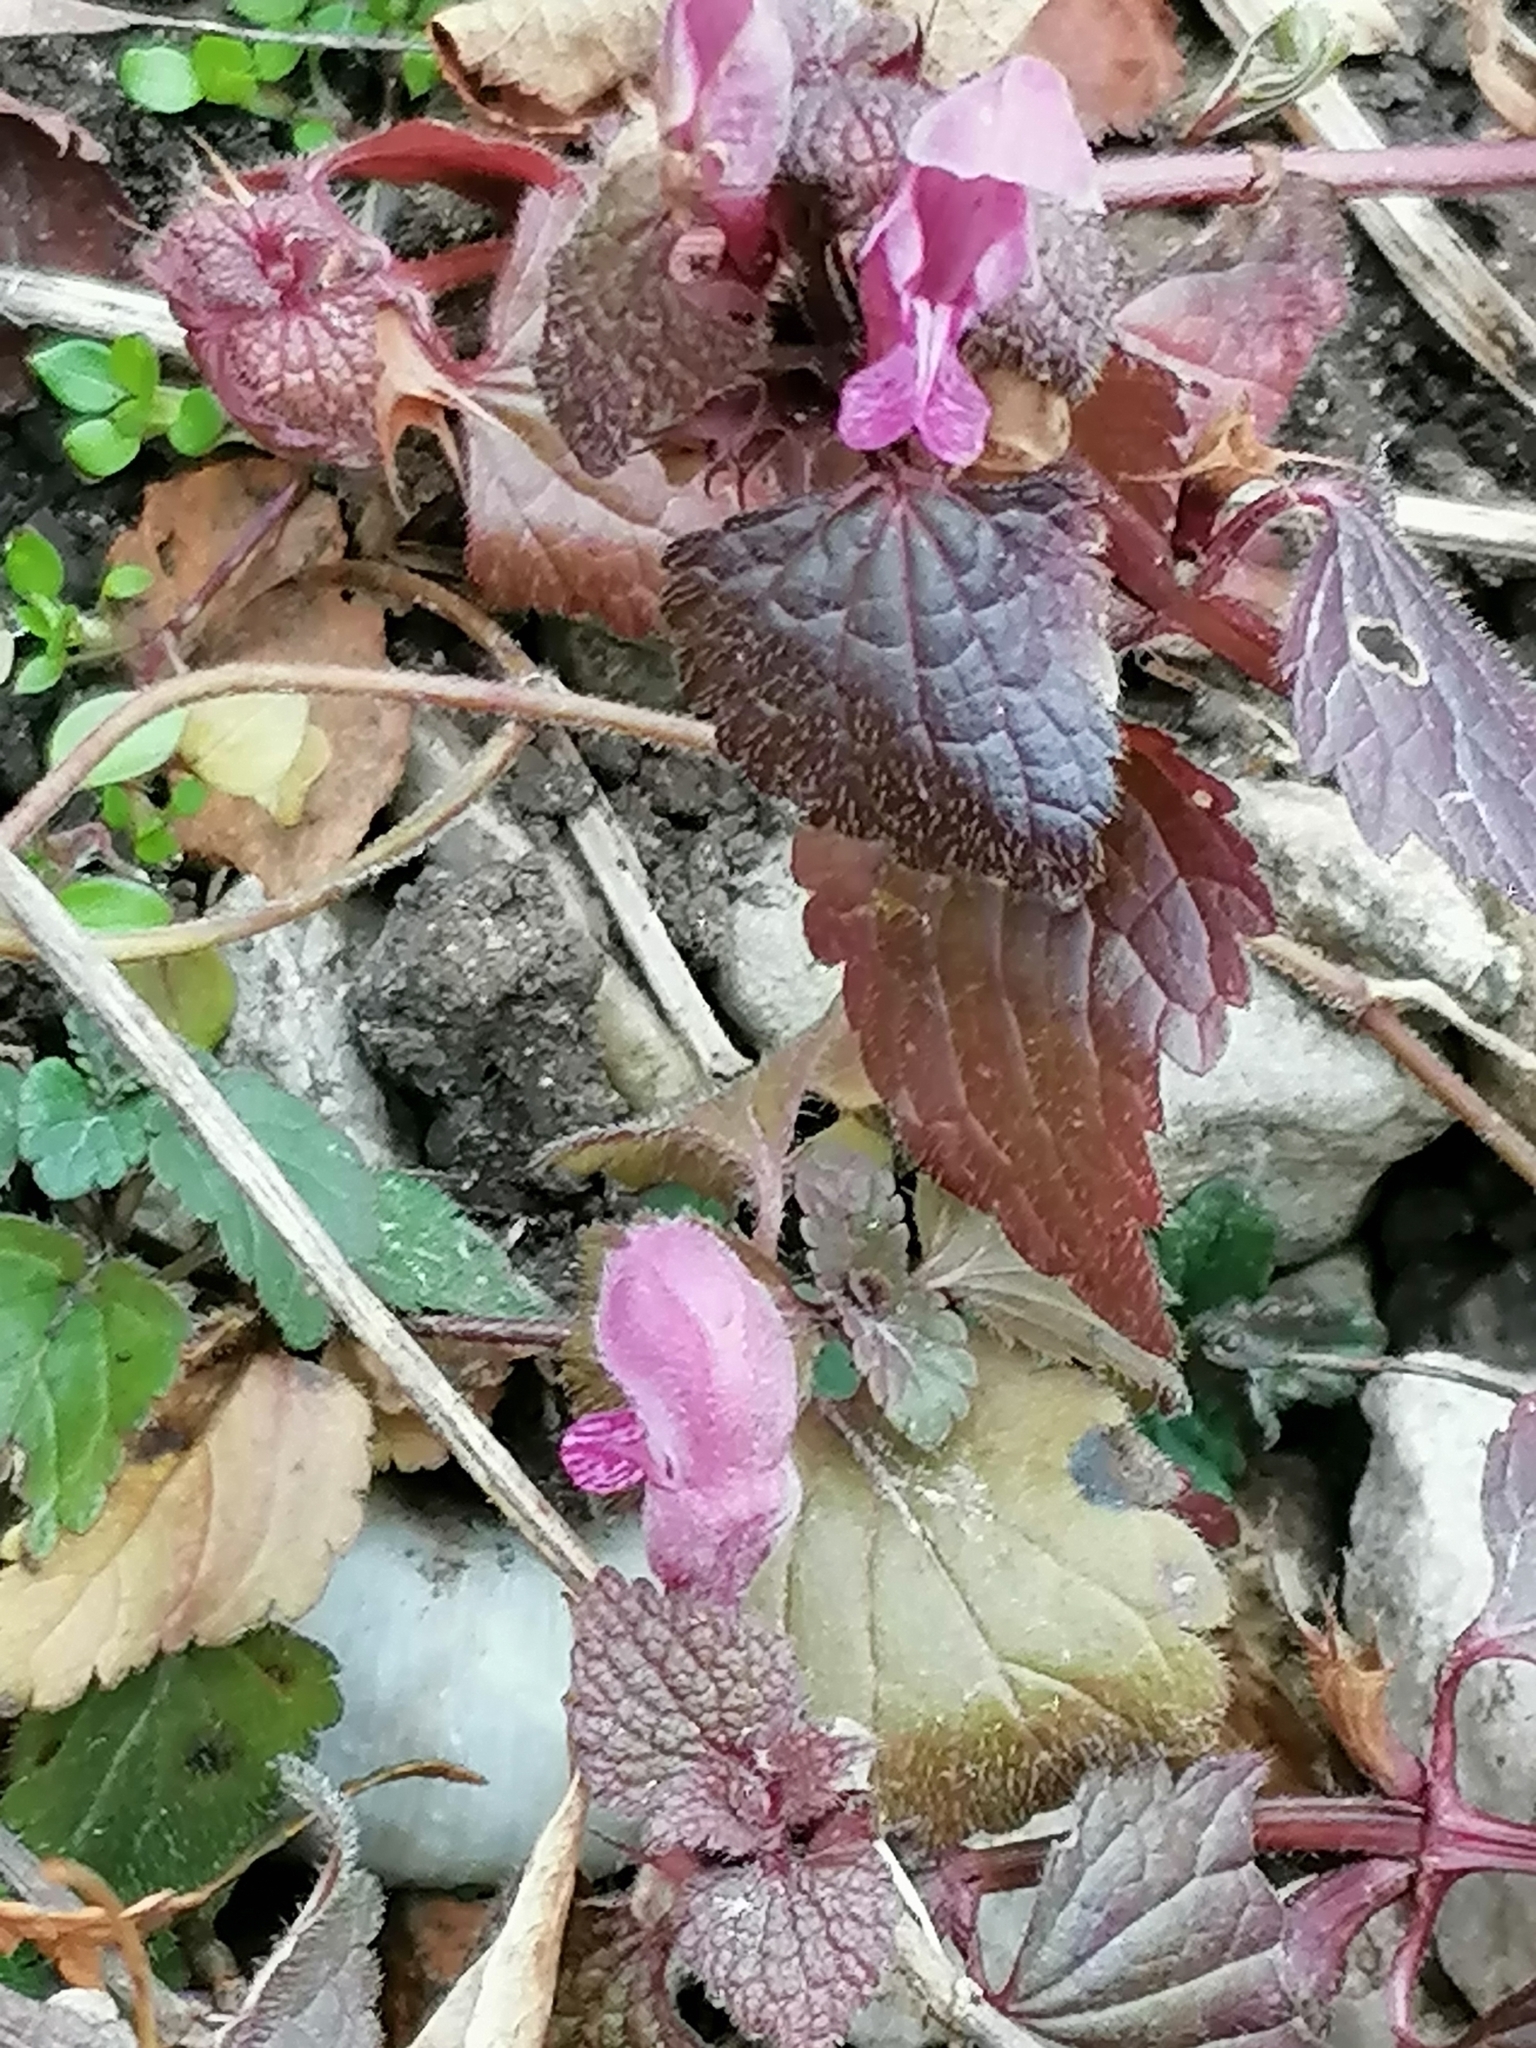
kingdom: Plantae
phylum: Tracheophyta
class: Magnoliopsida
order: Lamiales
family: Lamiaceae
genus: Lamium
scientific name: Lamium purpureum
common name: Red dead-nettle
